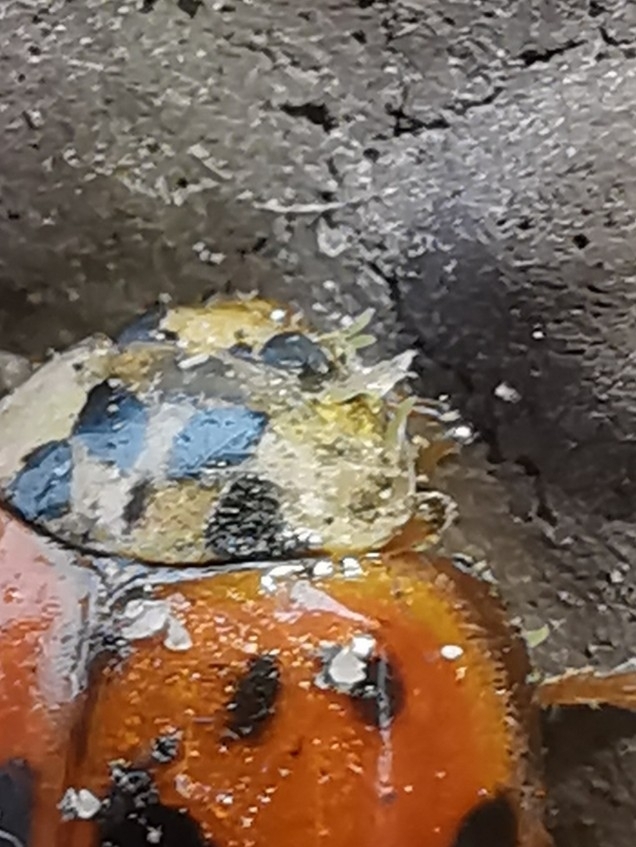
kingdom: Fungi
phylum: Ascomycota
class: Laboulbeniomycetes
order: Laboulbeniales
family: Laboulbeniaceae
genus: Hesperomyces
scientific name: Hesperomyces harmoniae
